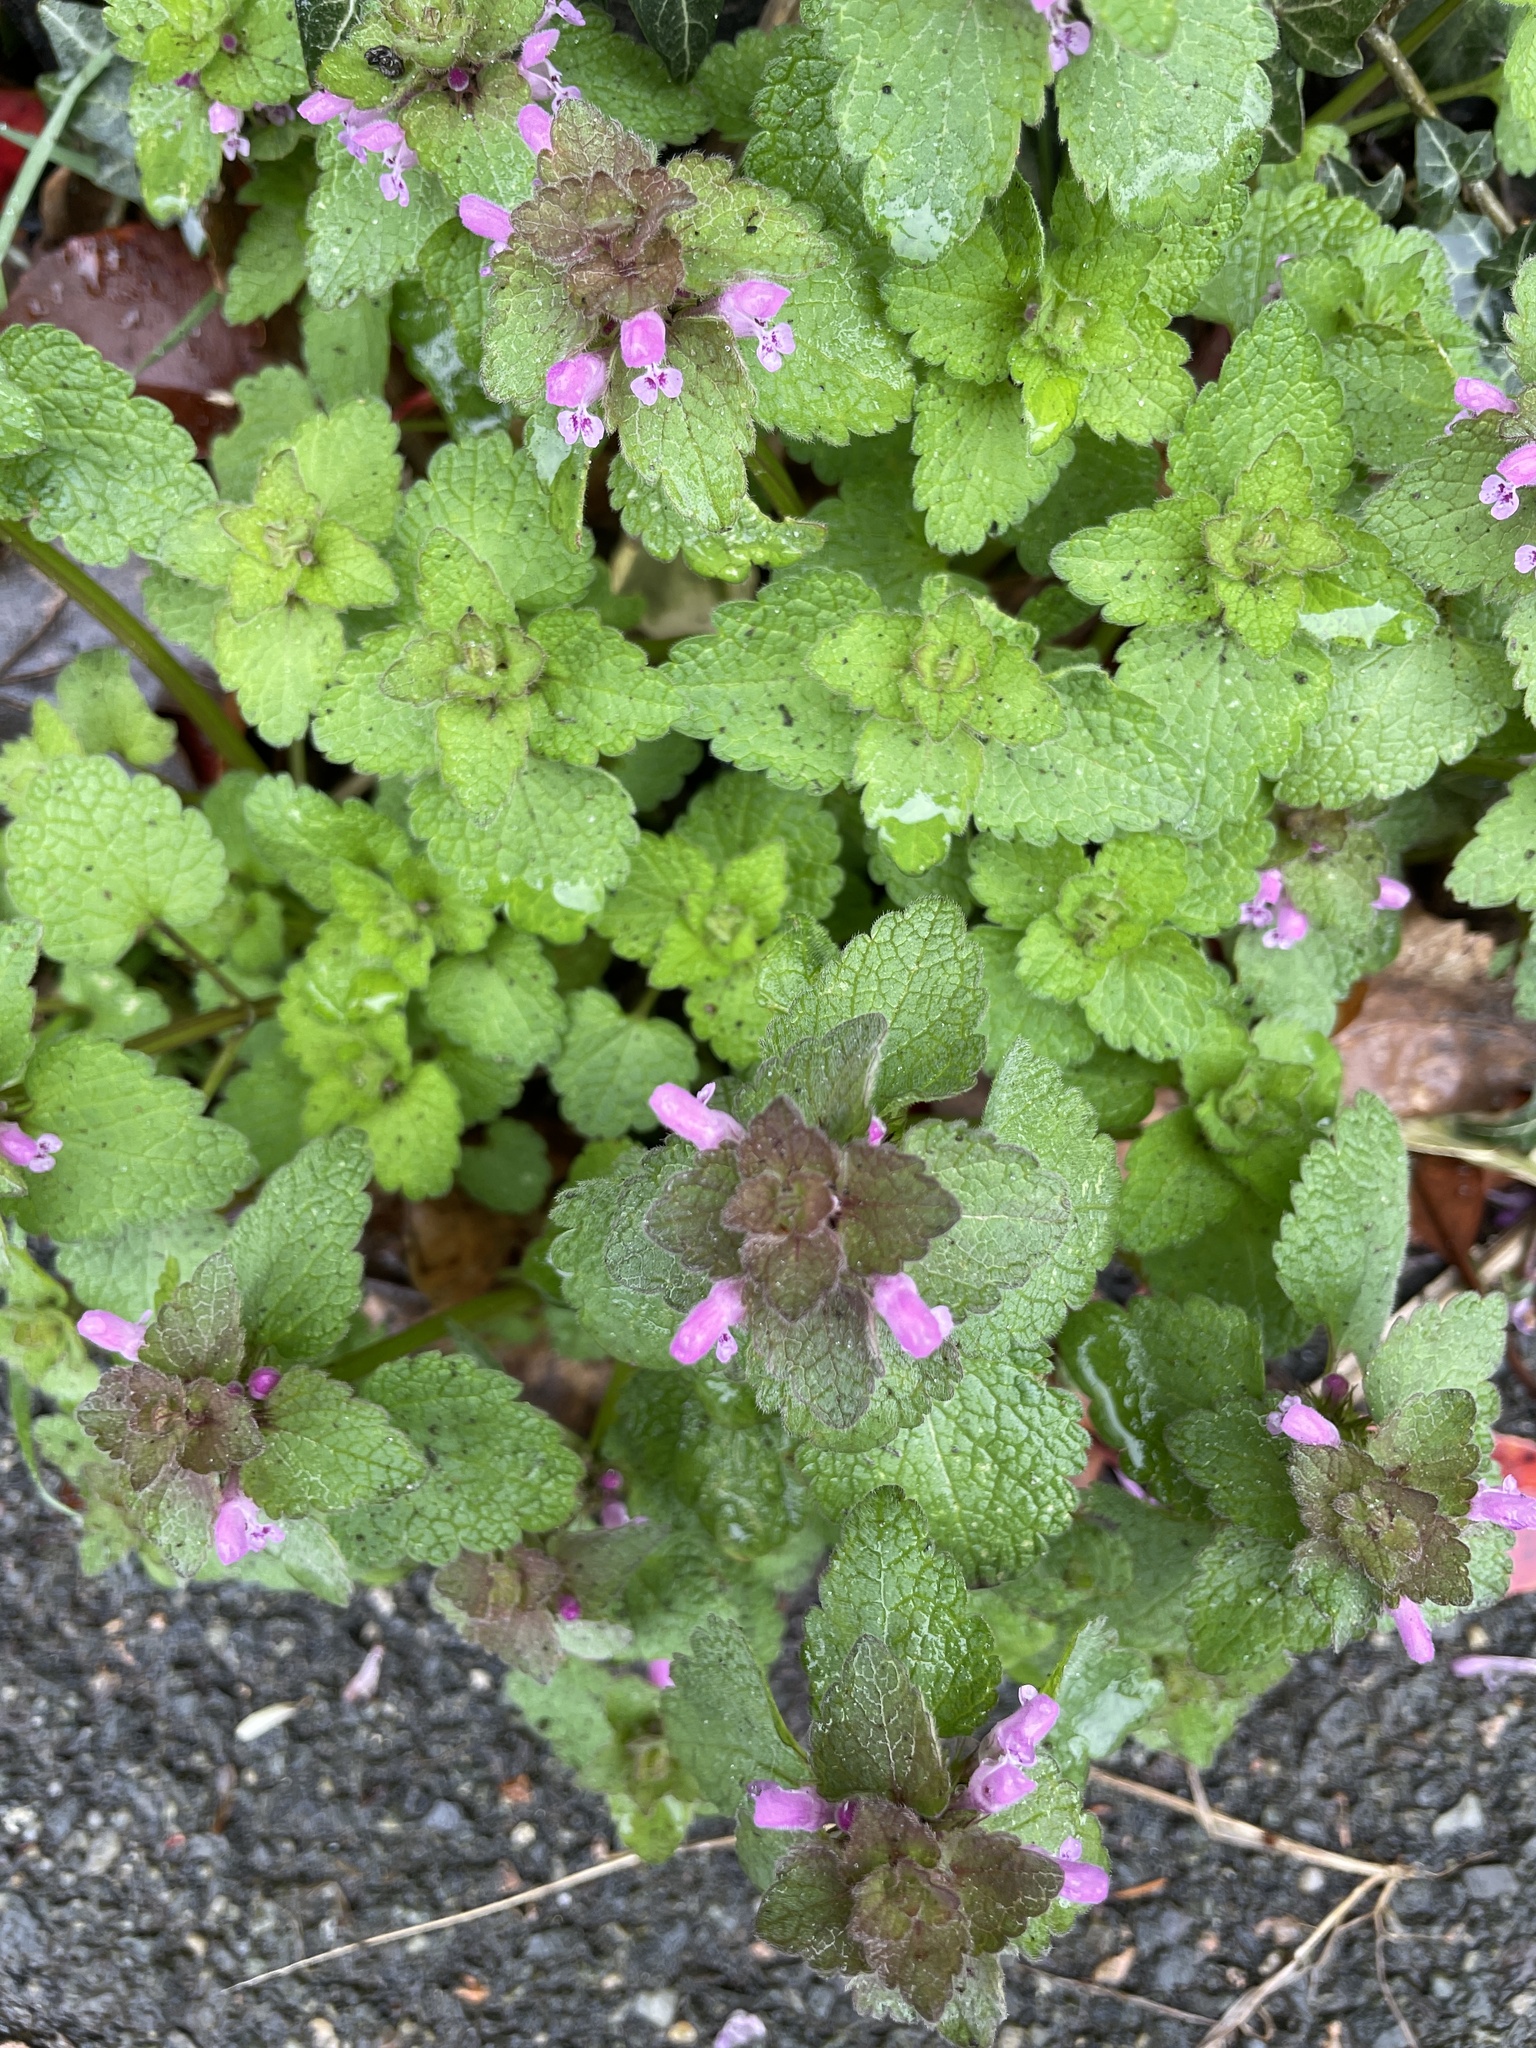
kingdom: Plantae
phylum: Tracheophyta
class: Magnoliopsida
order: Lamiales
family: Lamiaceae
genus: Lamium
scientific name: Lamium purpureum
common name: Red dead-nettle
